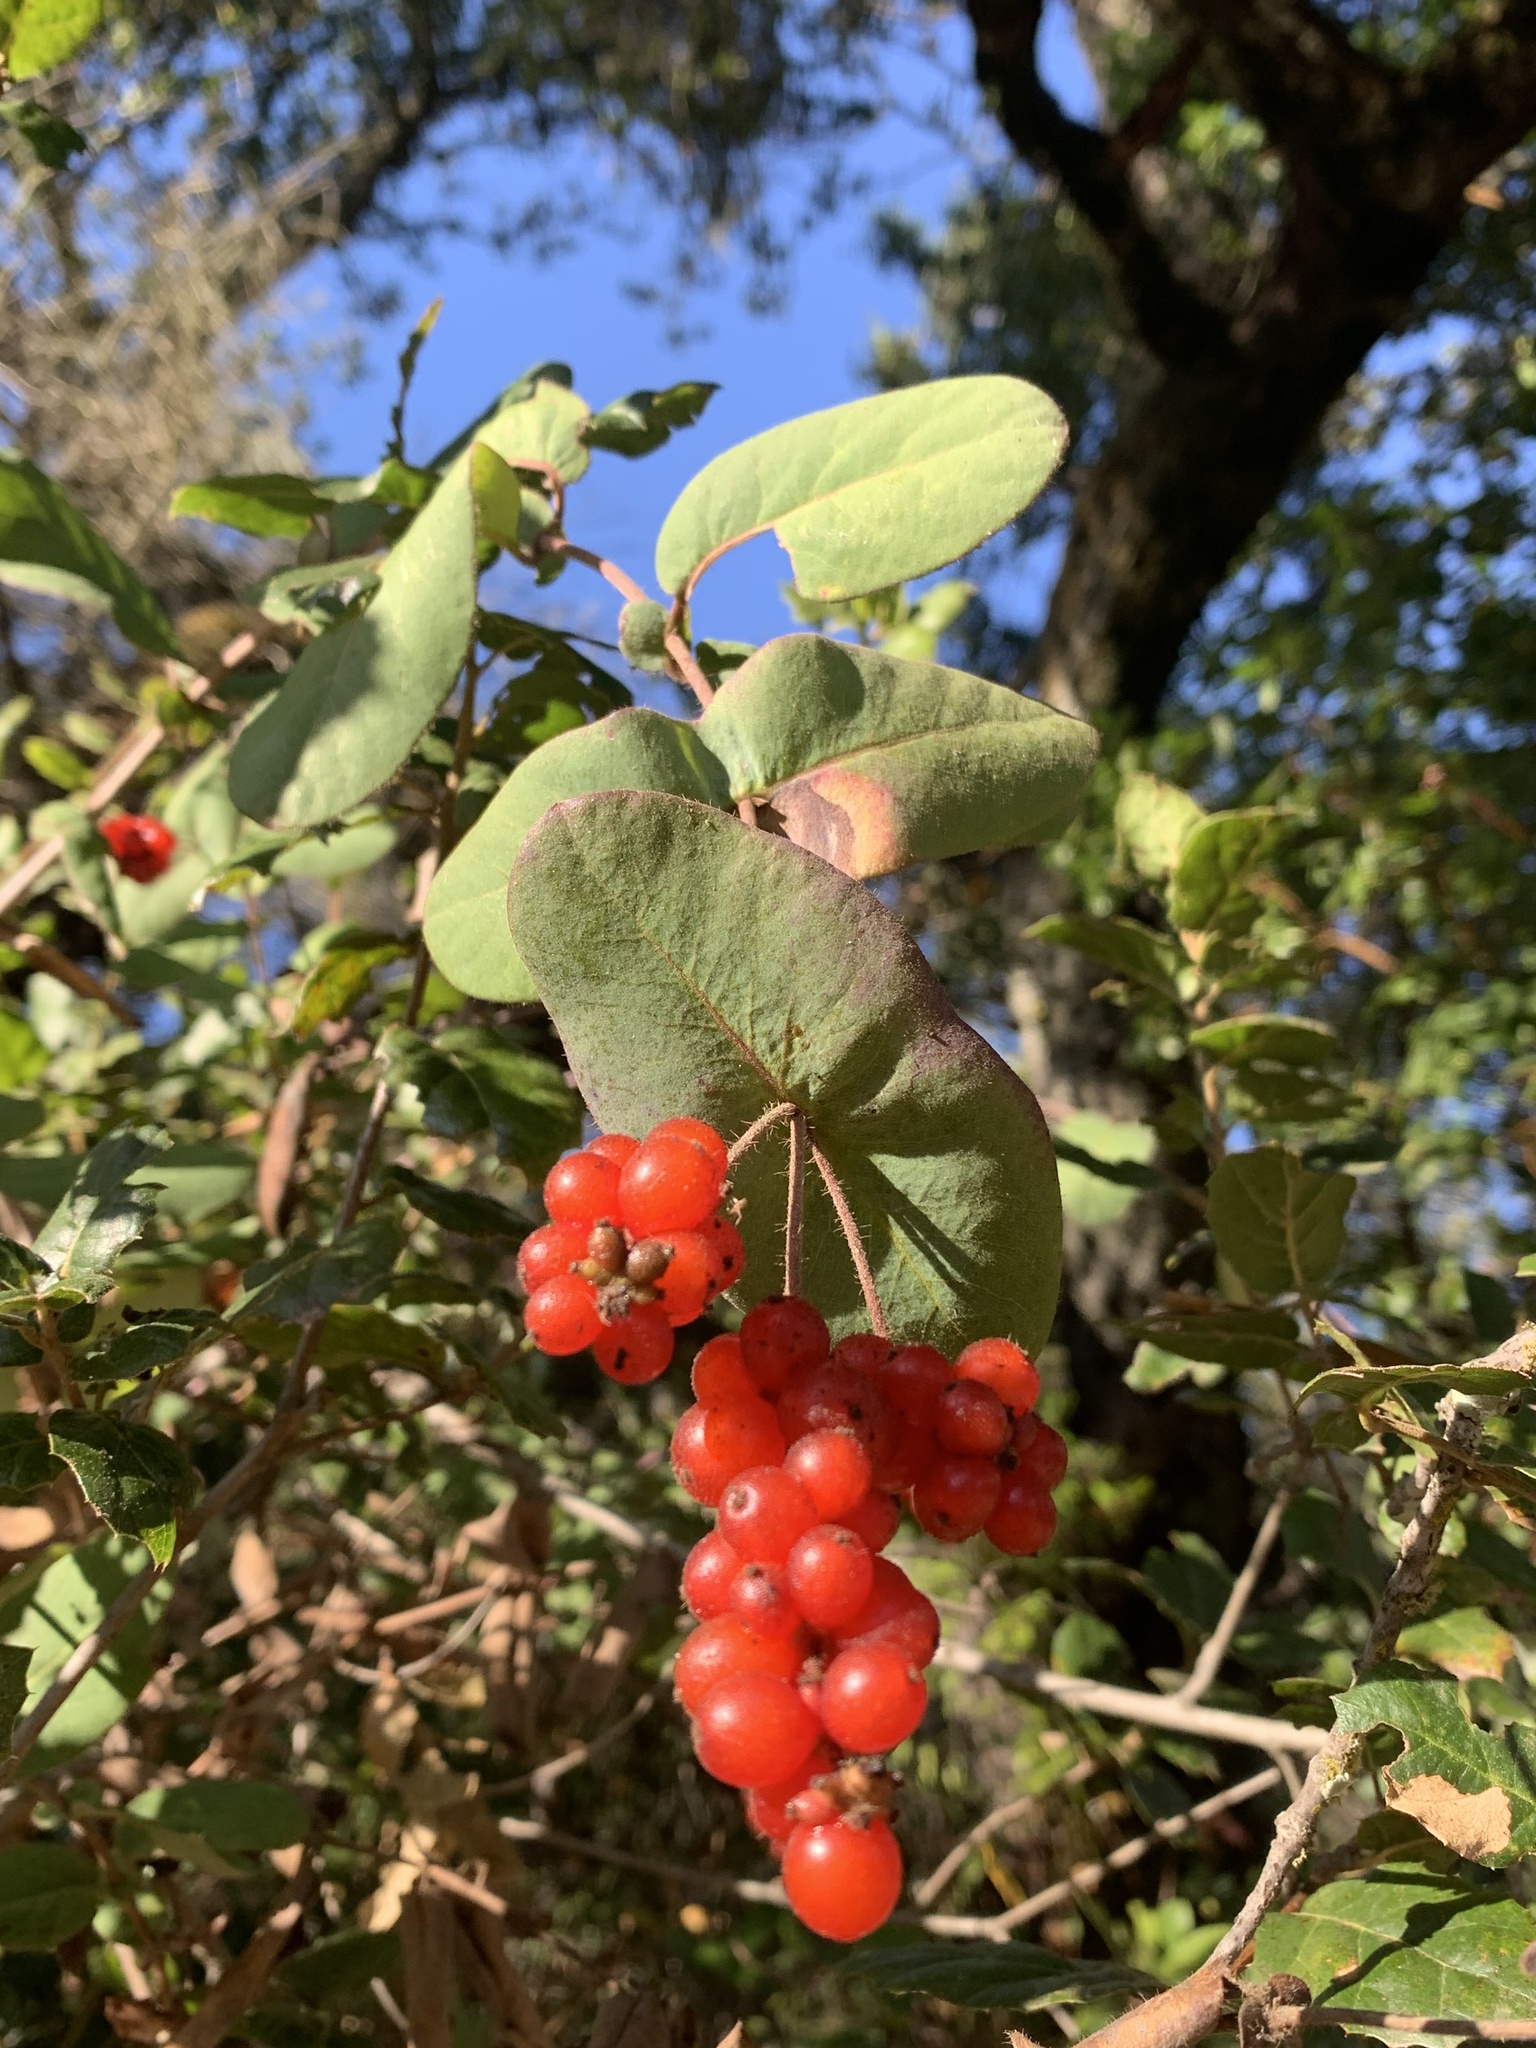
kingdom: Plantae
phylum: Tracheophyta
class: Magnoliopsida
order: Dipsacales
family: Caprifoliaceae
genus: Lonicera
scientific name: Lonicera hispidula
